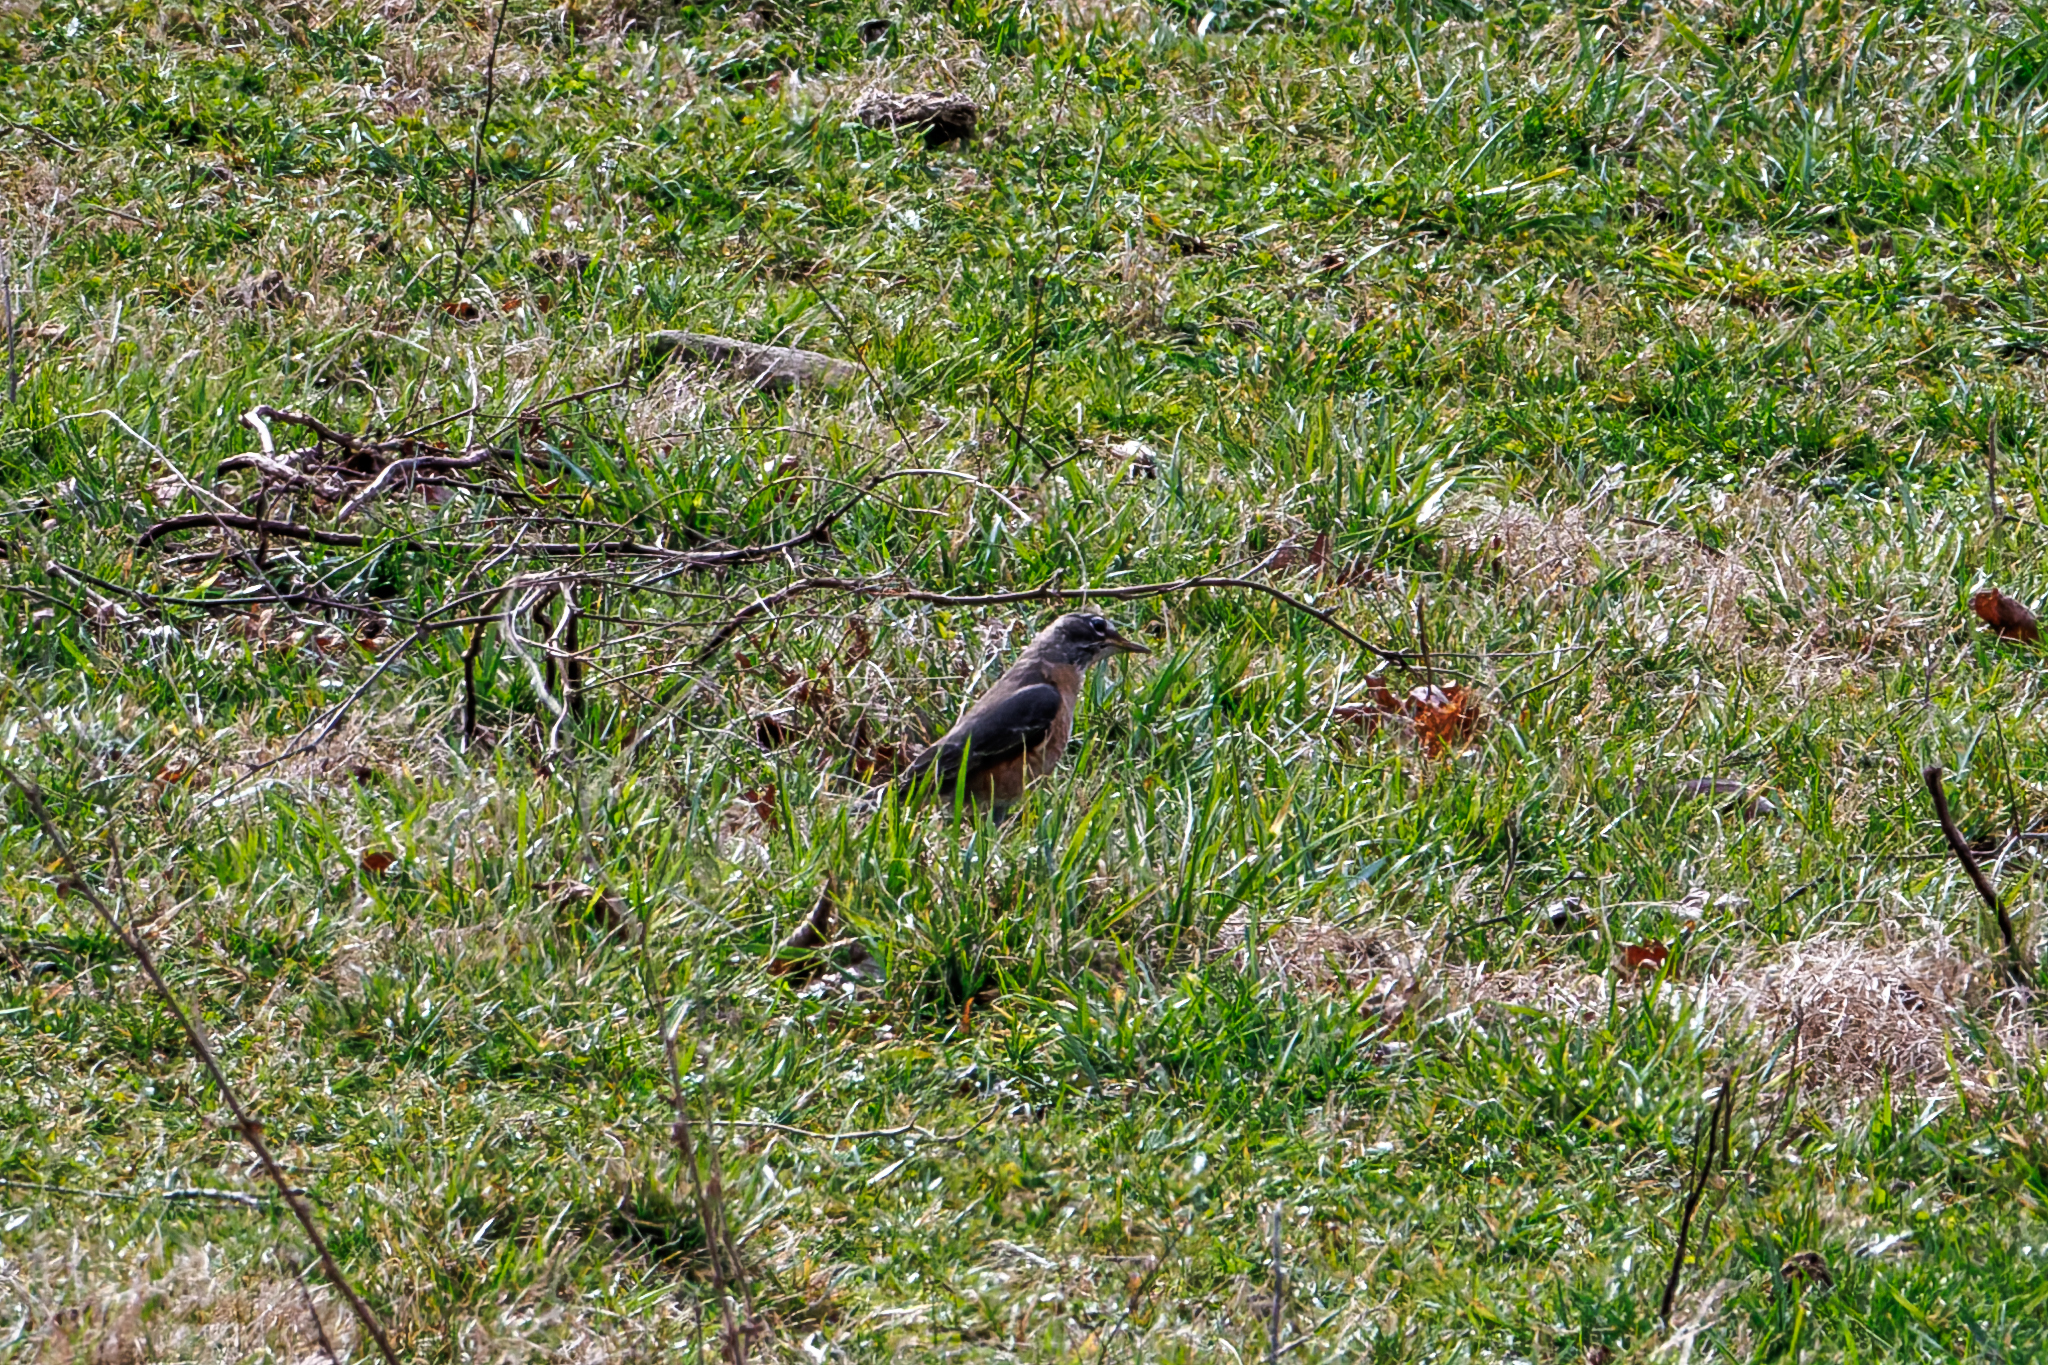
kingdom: Animalia
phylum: Chordata
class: Aves
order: Passeriformes
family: Turdidae
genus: Turdus
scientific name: Turdus migratorius
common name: American robin
